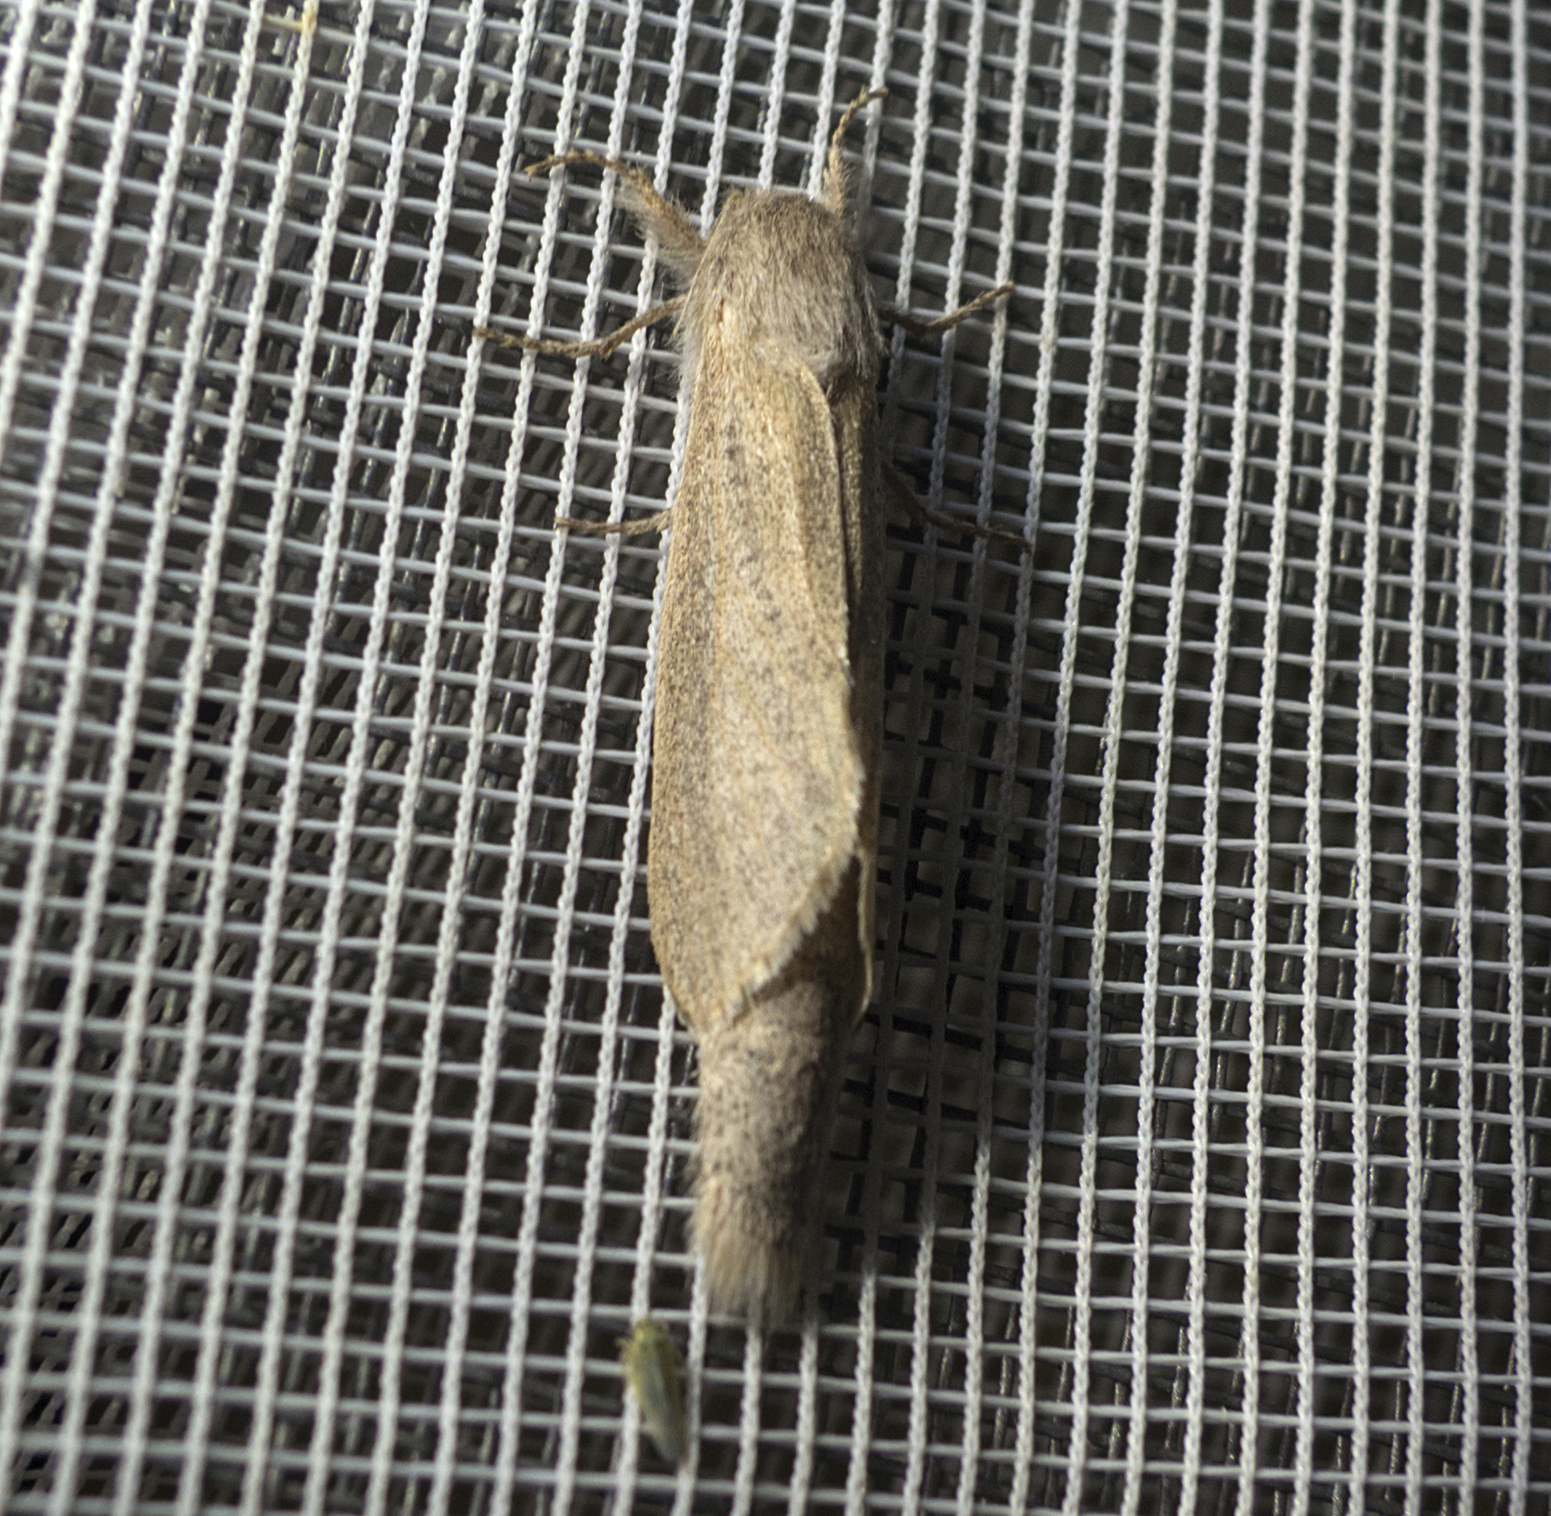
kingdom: Animalia
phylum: Arthropoda
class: Insecta
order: Lepidoptera
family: Cossidae
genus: Phragmataecia
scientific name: Phragmataecia castaneae
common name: Reed leopard
